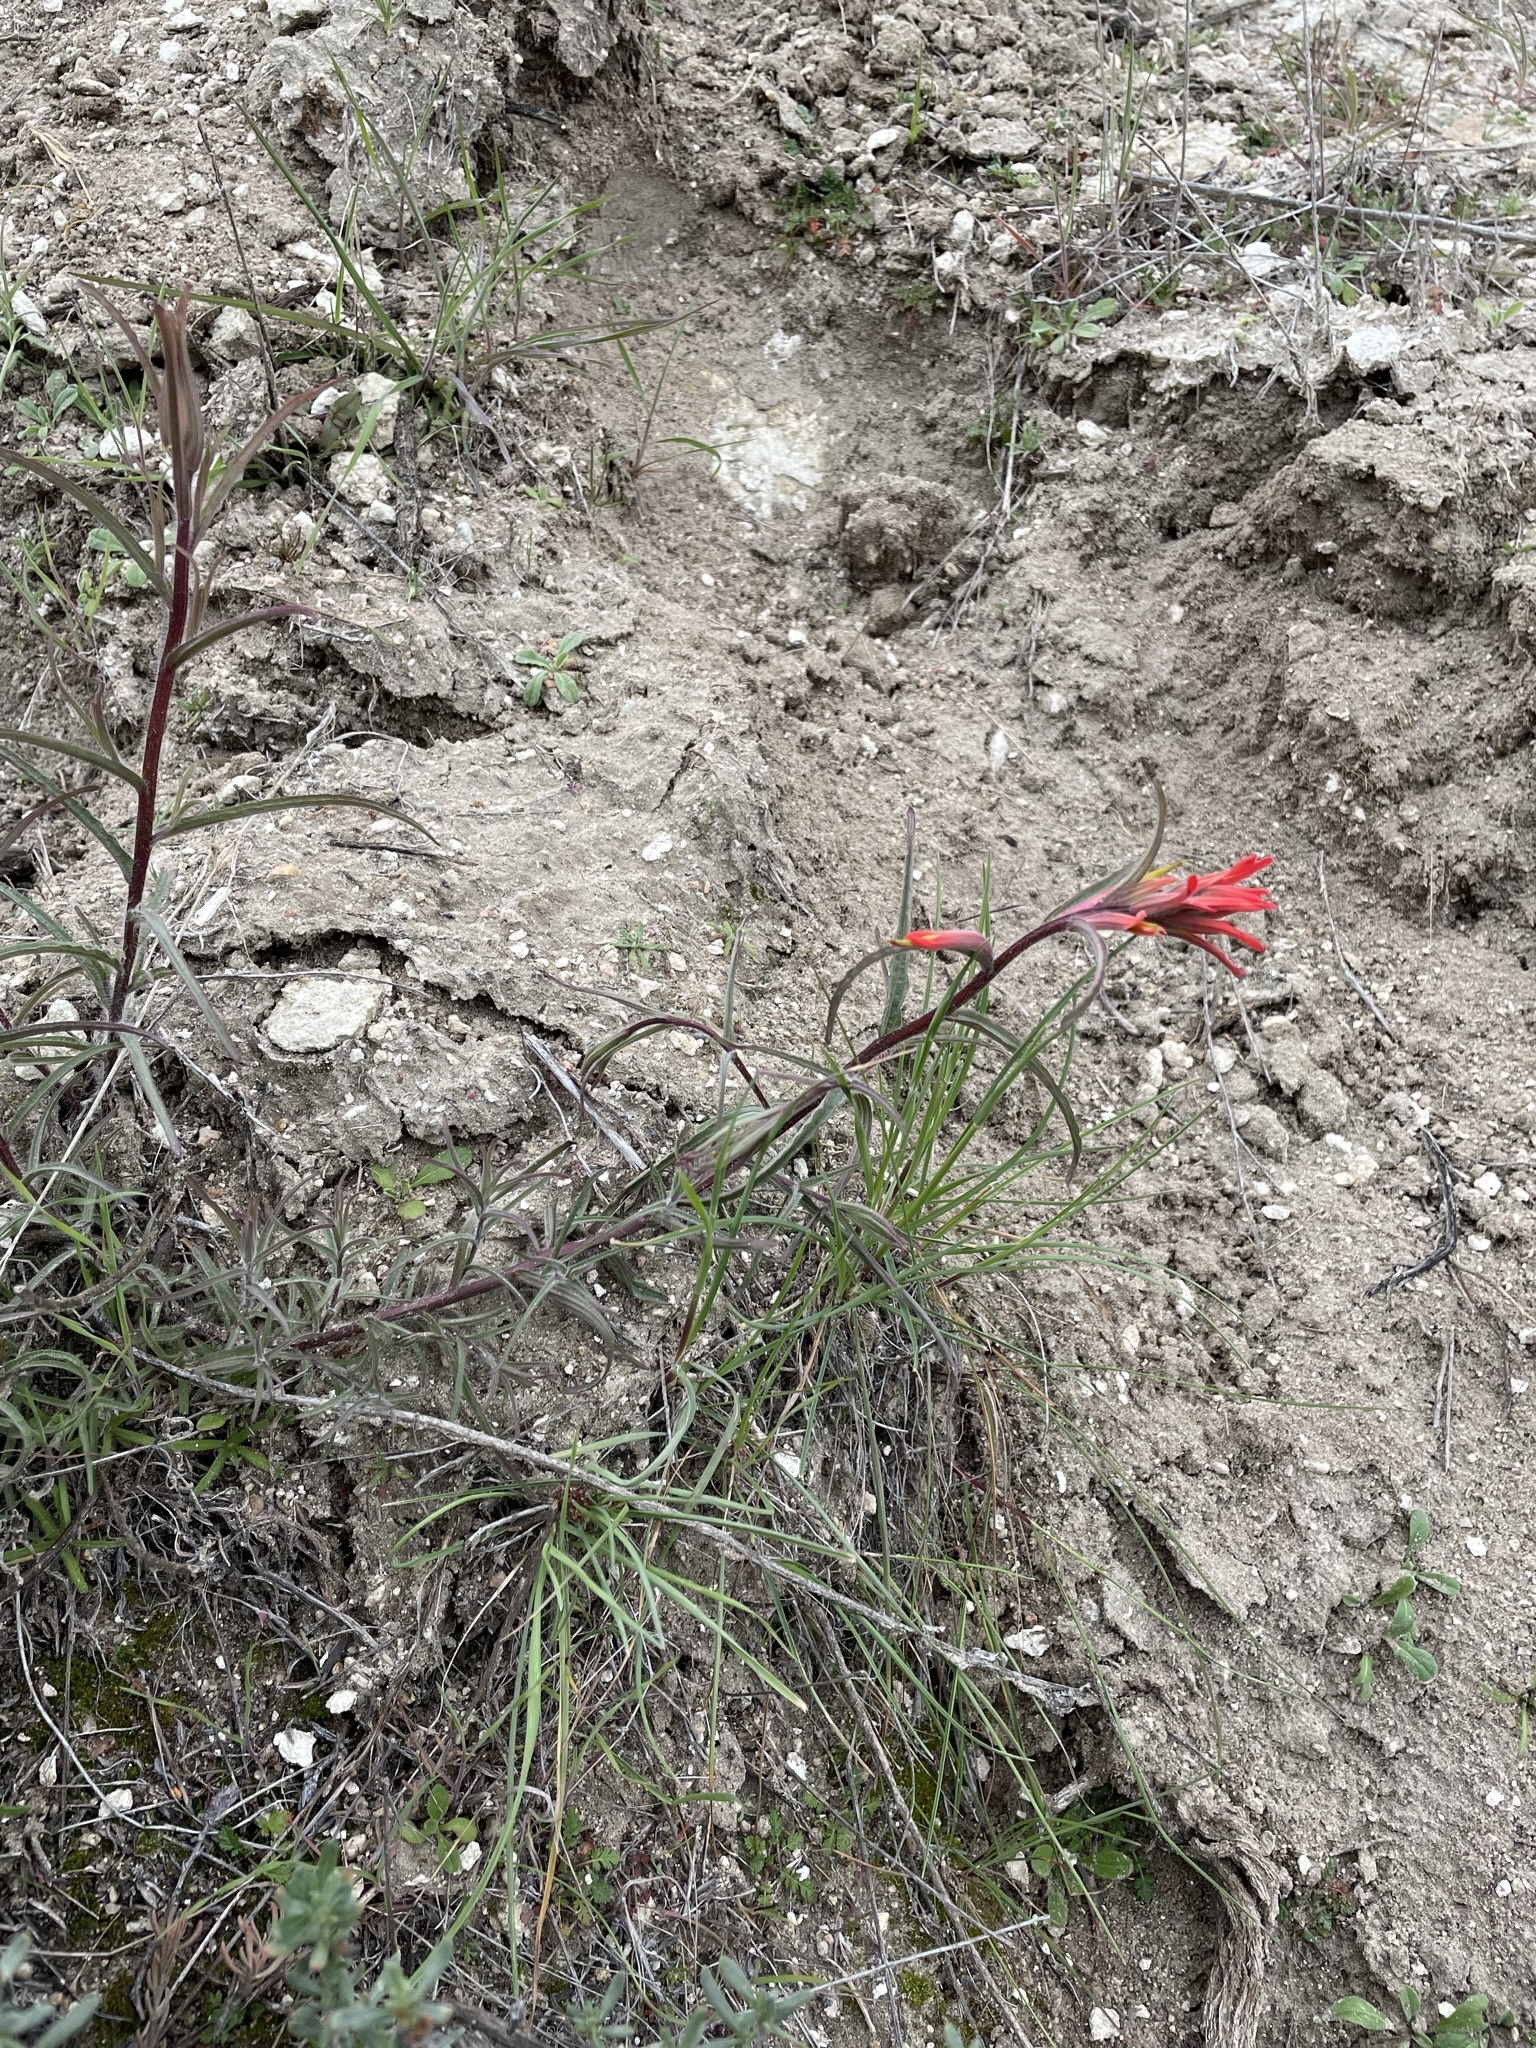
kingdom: Plantae
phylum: Tracheophyta
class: Magnoliopsida
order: Lamiales
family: Orobanchaceae
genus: Castilleja
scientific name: Castilleja subinclusa
